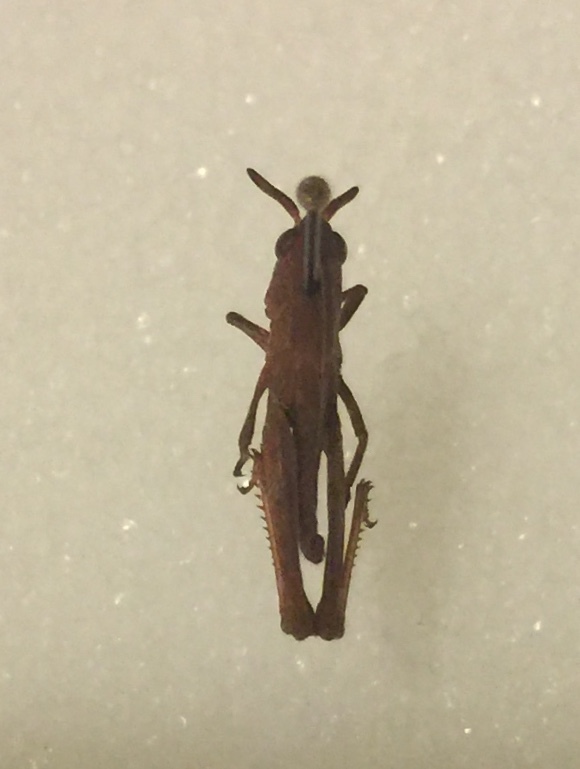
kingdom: Animalia
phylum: Arthropoda
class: Insecta
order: Orthoptera
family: Acrididae
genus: Chortophaga
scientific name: Chortophaga viridifasciata
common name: Green-striped grasshopper
